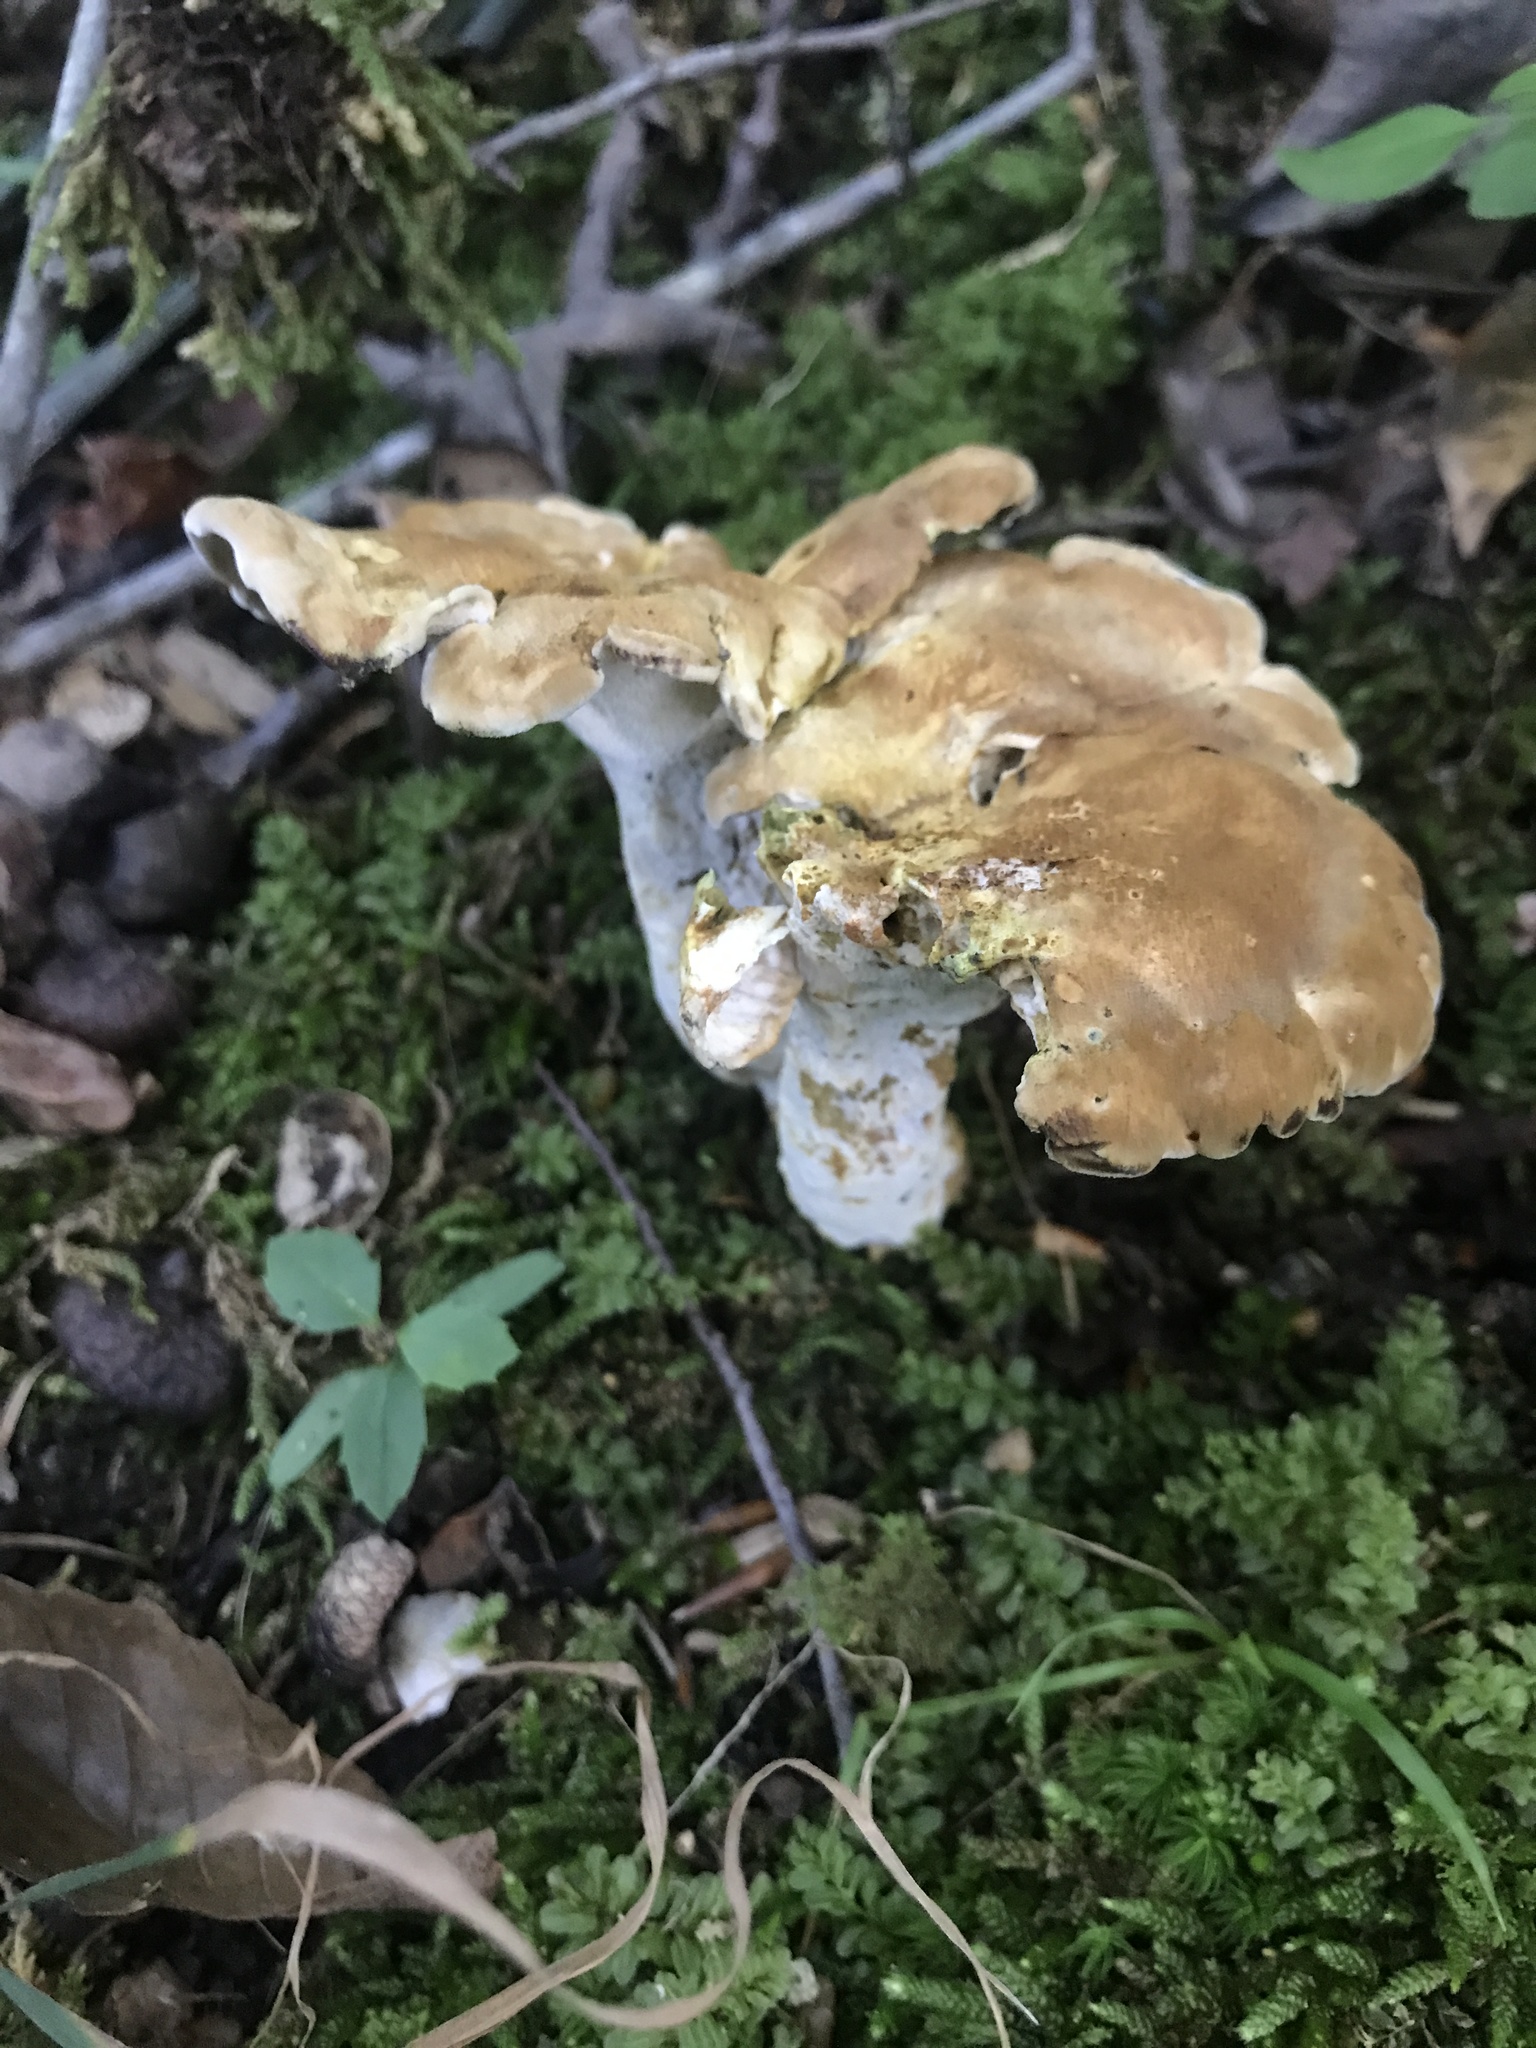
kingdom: Fungi
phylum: Basidiomycota
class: Agaricomycetes
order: Russulales
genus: Laeticutis
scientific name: Laeticutis cristata
